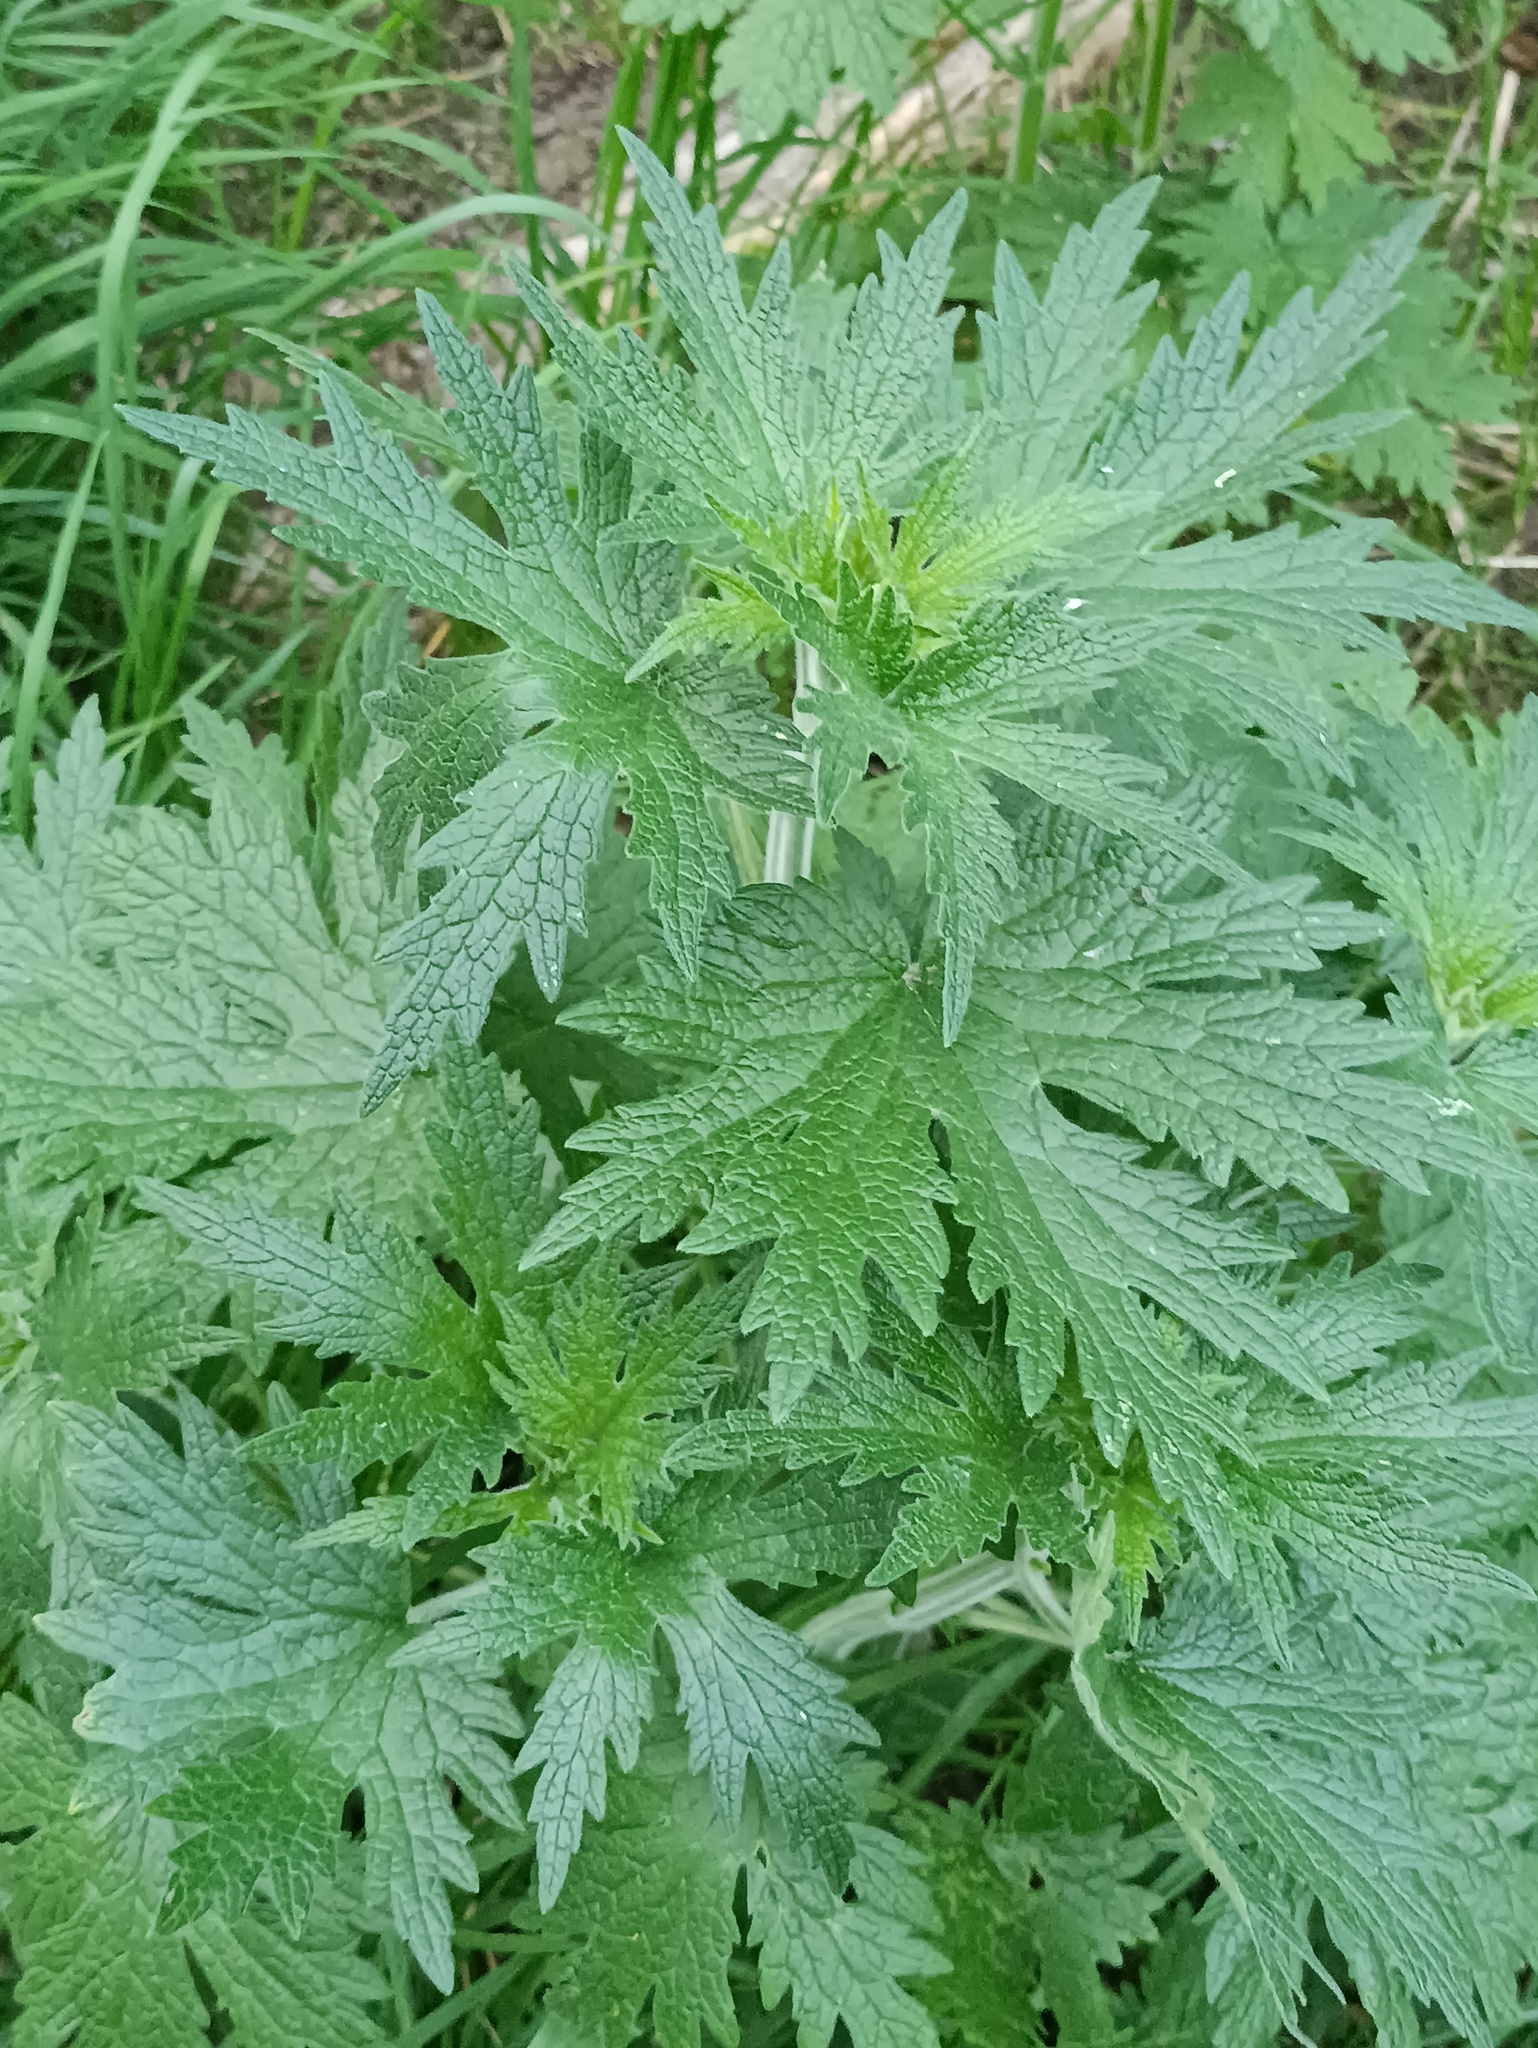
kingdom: Plantae
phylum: Tracheophyta
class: Magnoliopsida
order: Lamiales
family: Lamiaceae
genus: Leonurus
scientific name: Leonurus quinquelobatus
